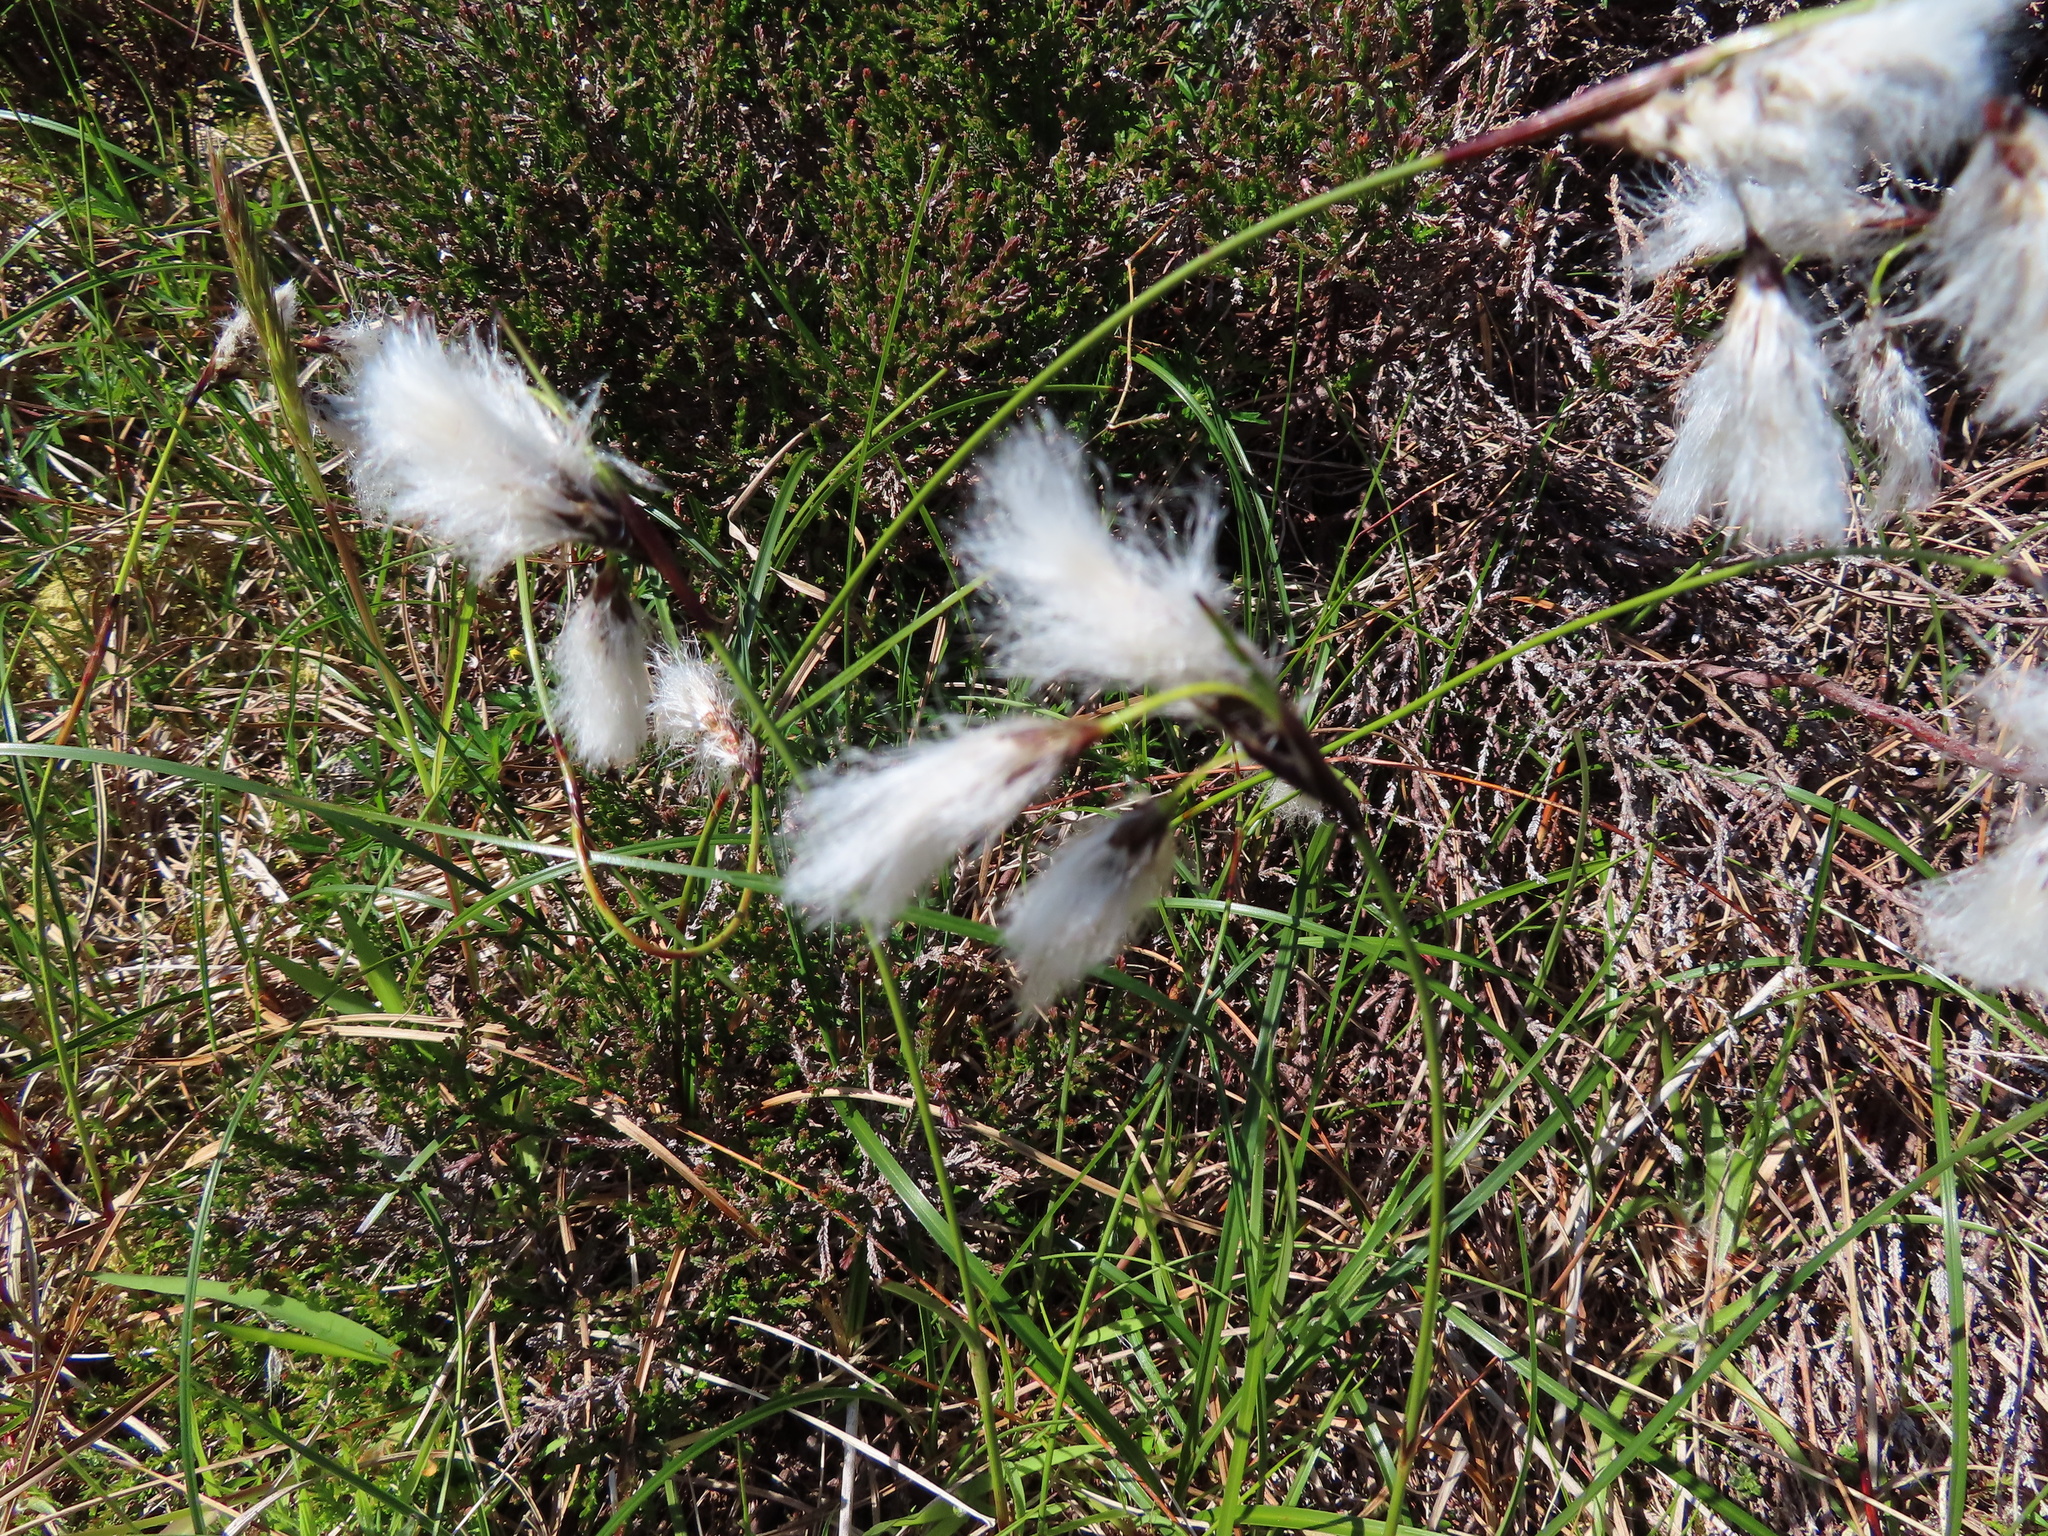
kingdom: Plantae
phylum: Tracheophyta
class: Liliopsida
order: Poales
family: Cyperaceae
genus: Eriophorum
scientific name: Eriophorum angustifolium
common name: Common cottongrass
